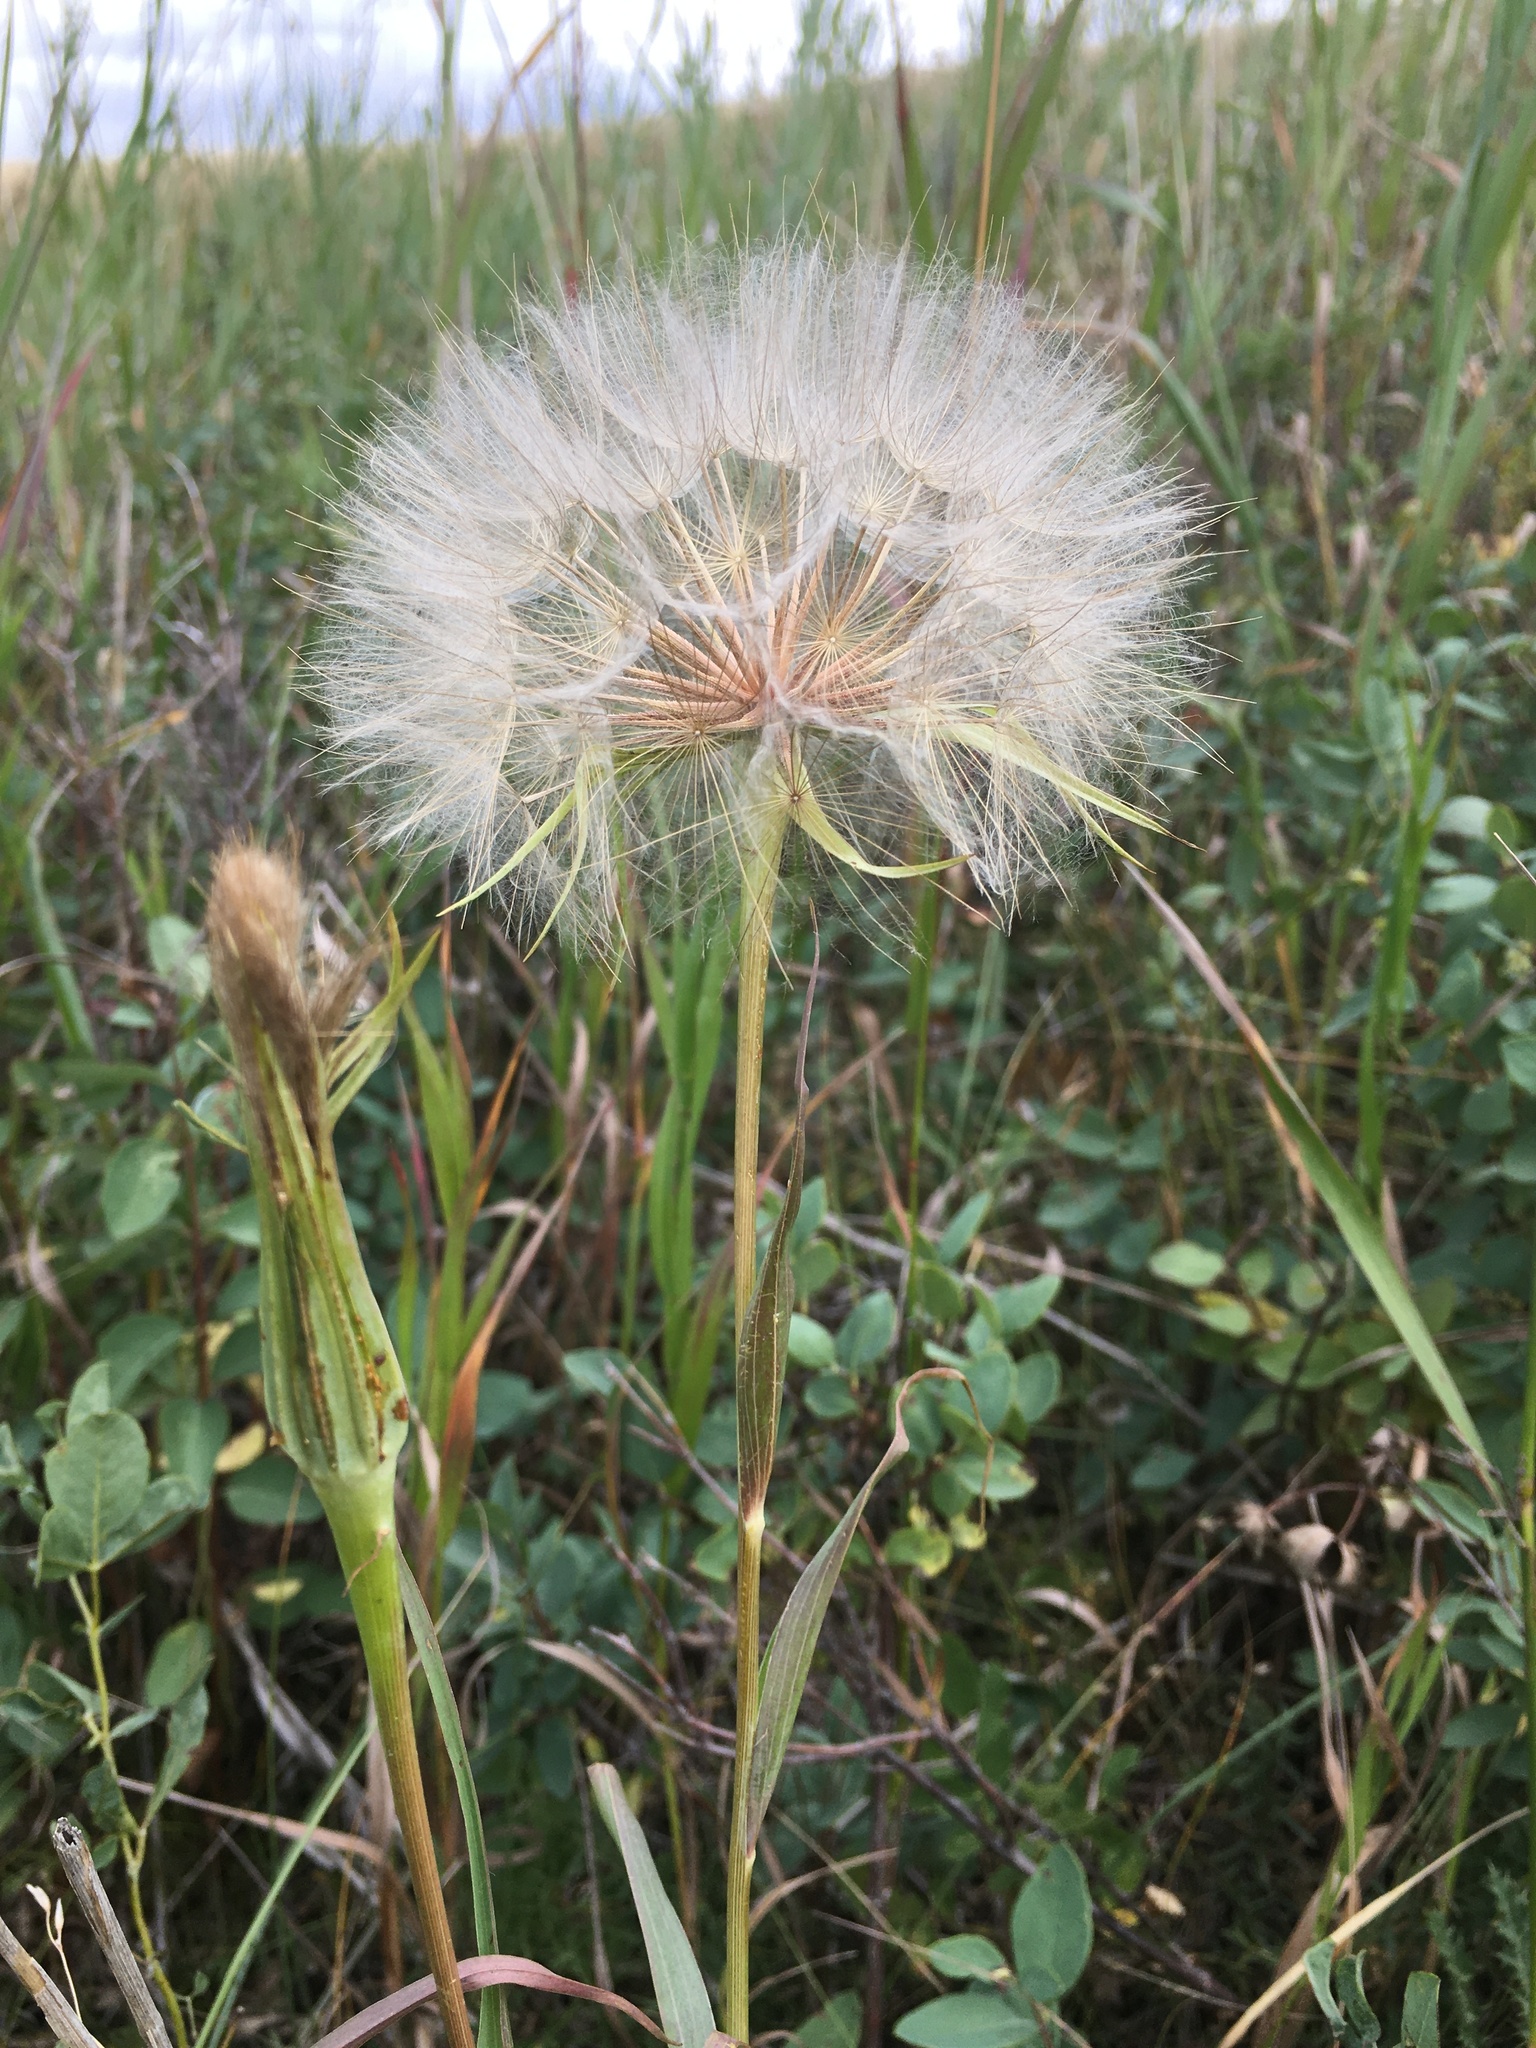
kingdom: Plantae
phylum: Tracheophyta
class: Magnoliopsida
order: Asterales
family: Asteraceae
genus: Tragopogon
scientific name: Tragopogon dubius
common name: Yellow salsify
